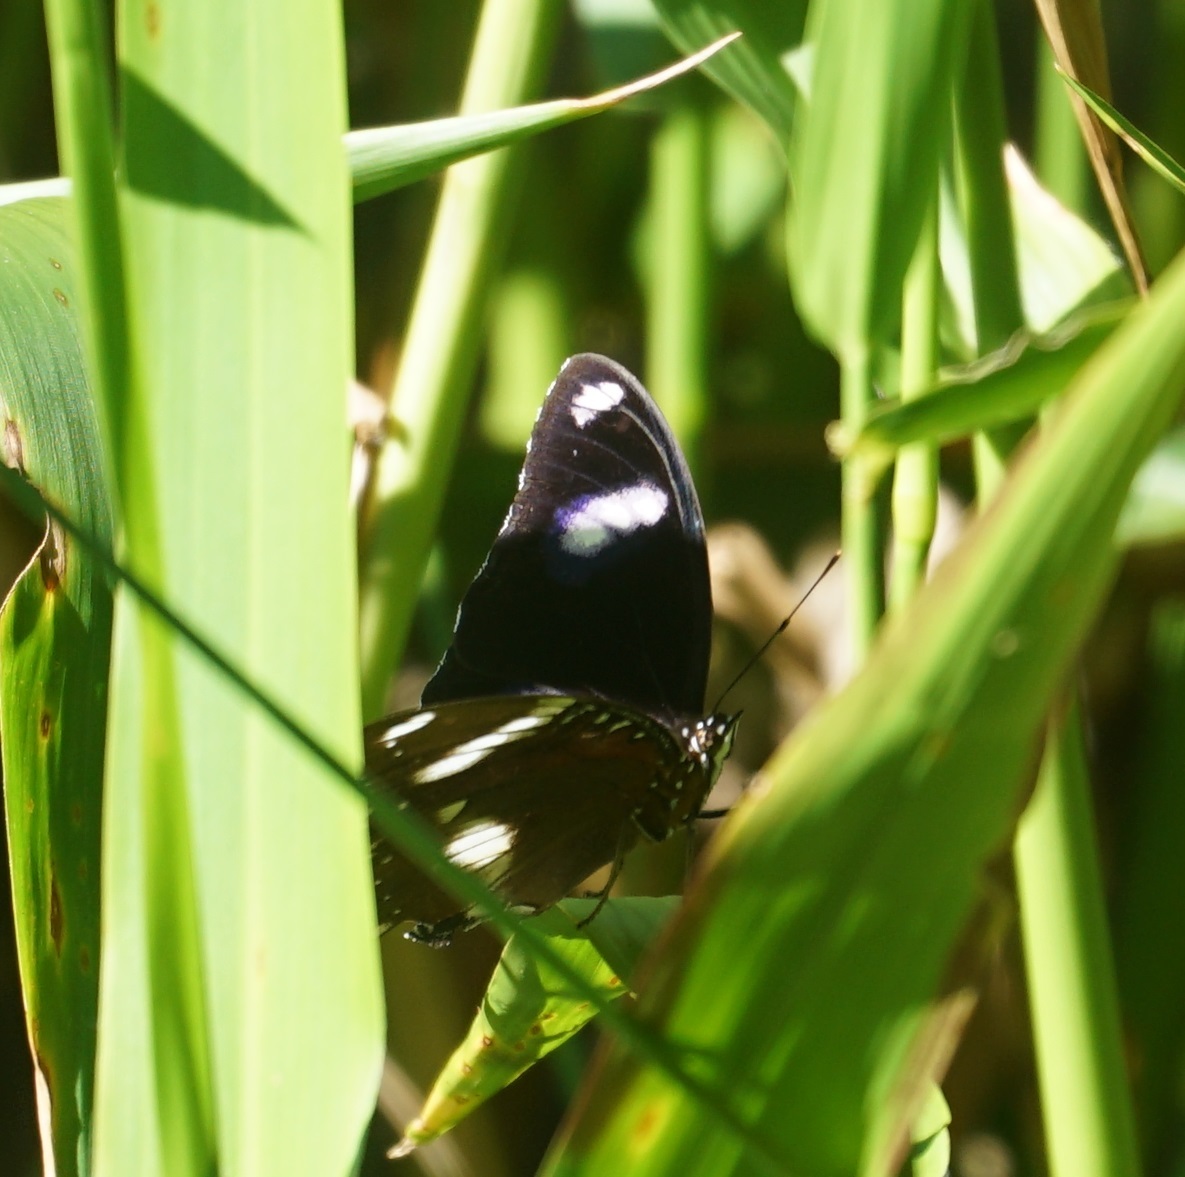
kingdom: Animalia
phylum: Arthropoda
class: Insecta
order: Lepidoptera
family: Nymphalidae
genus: Hypolimnas
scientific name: Hypolimnas bolina
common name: Great eggfly
